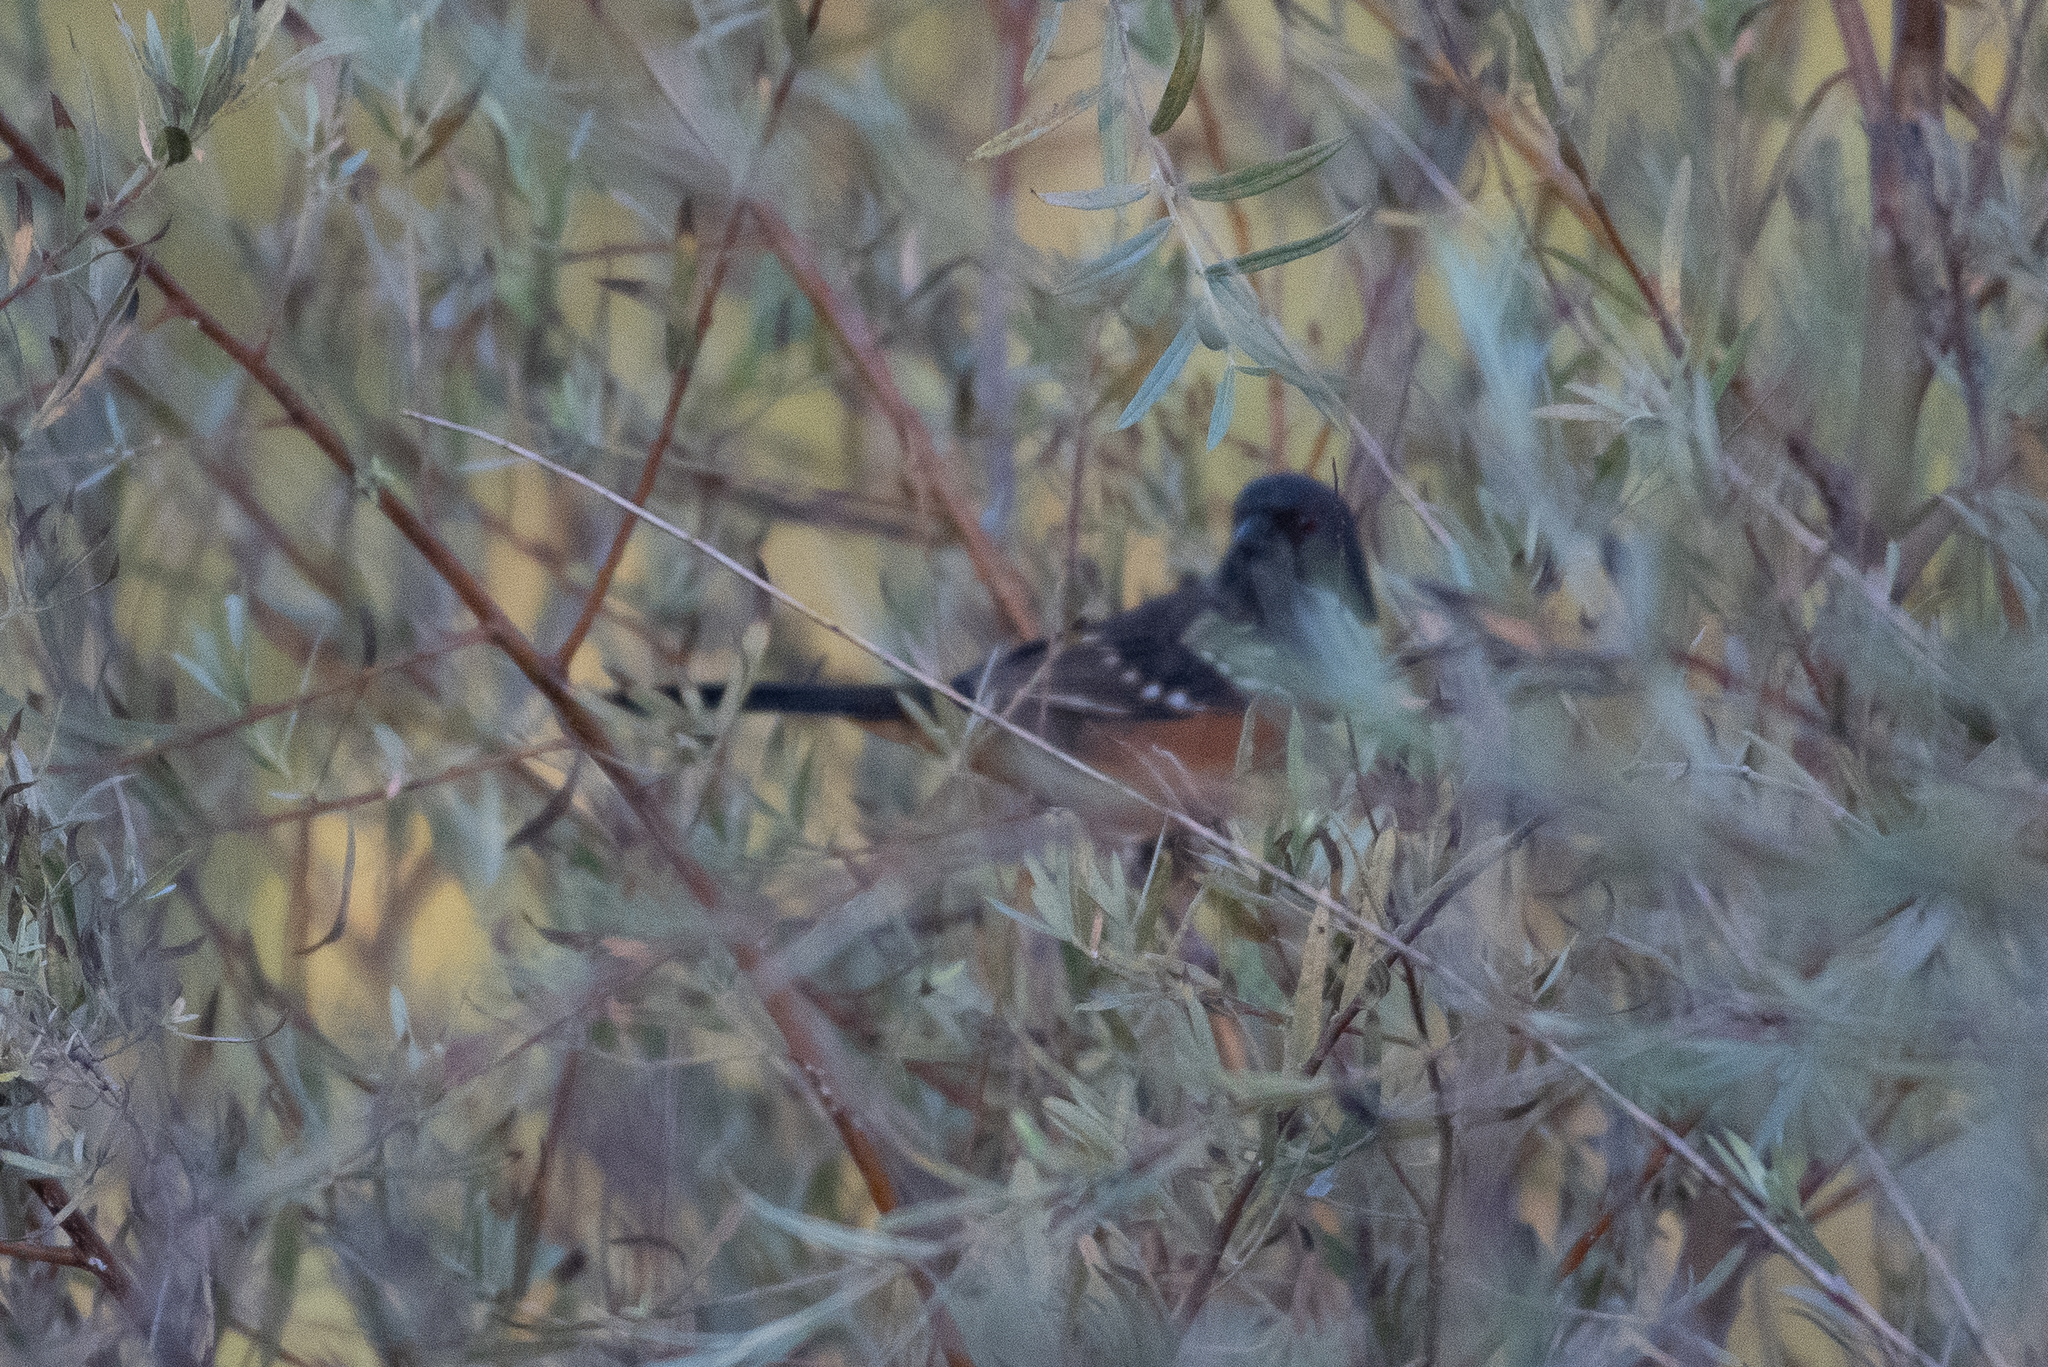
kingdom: Animalia
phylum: Chordata
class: Aves
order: Passeriformes
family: Passerellidae
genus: Pipilo
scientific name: Pipilo maculatus
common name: Spotted towhee
